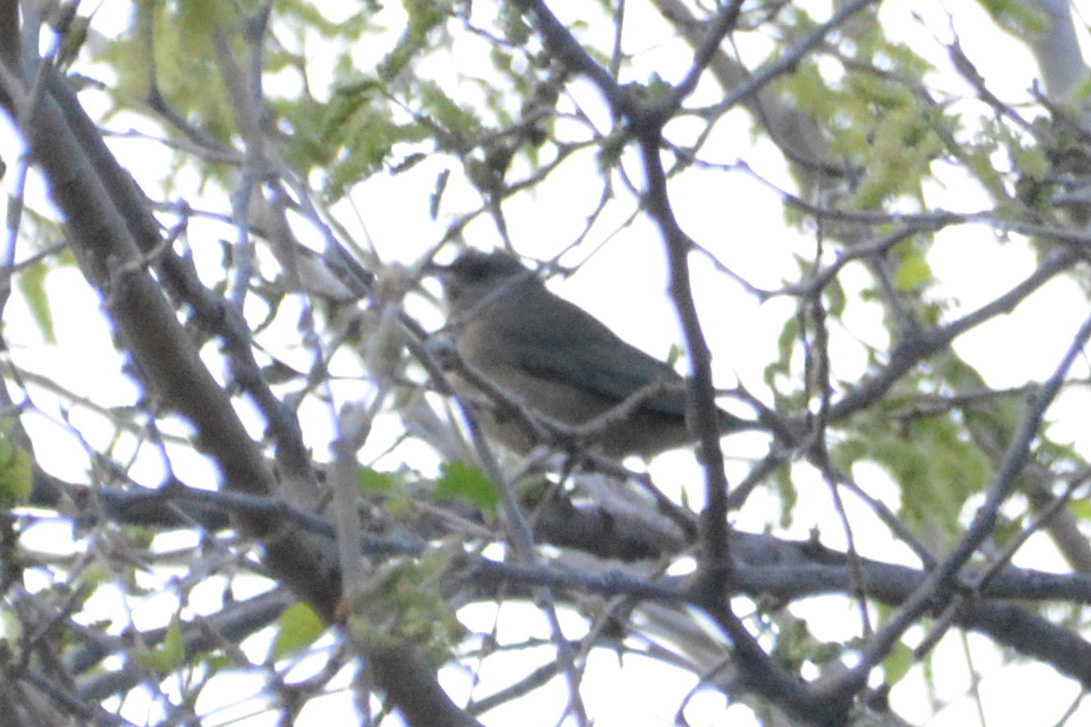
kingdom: Animalia
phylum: Chordata
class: Aves
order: Passeriformes
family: Thraupidae
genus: Rauenia
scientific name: Rauenia bonariensis
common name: Blue-and-yellow tanager
